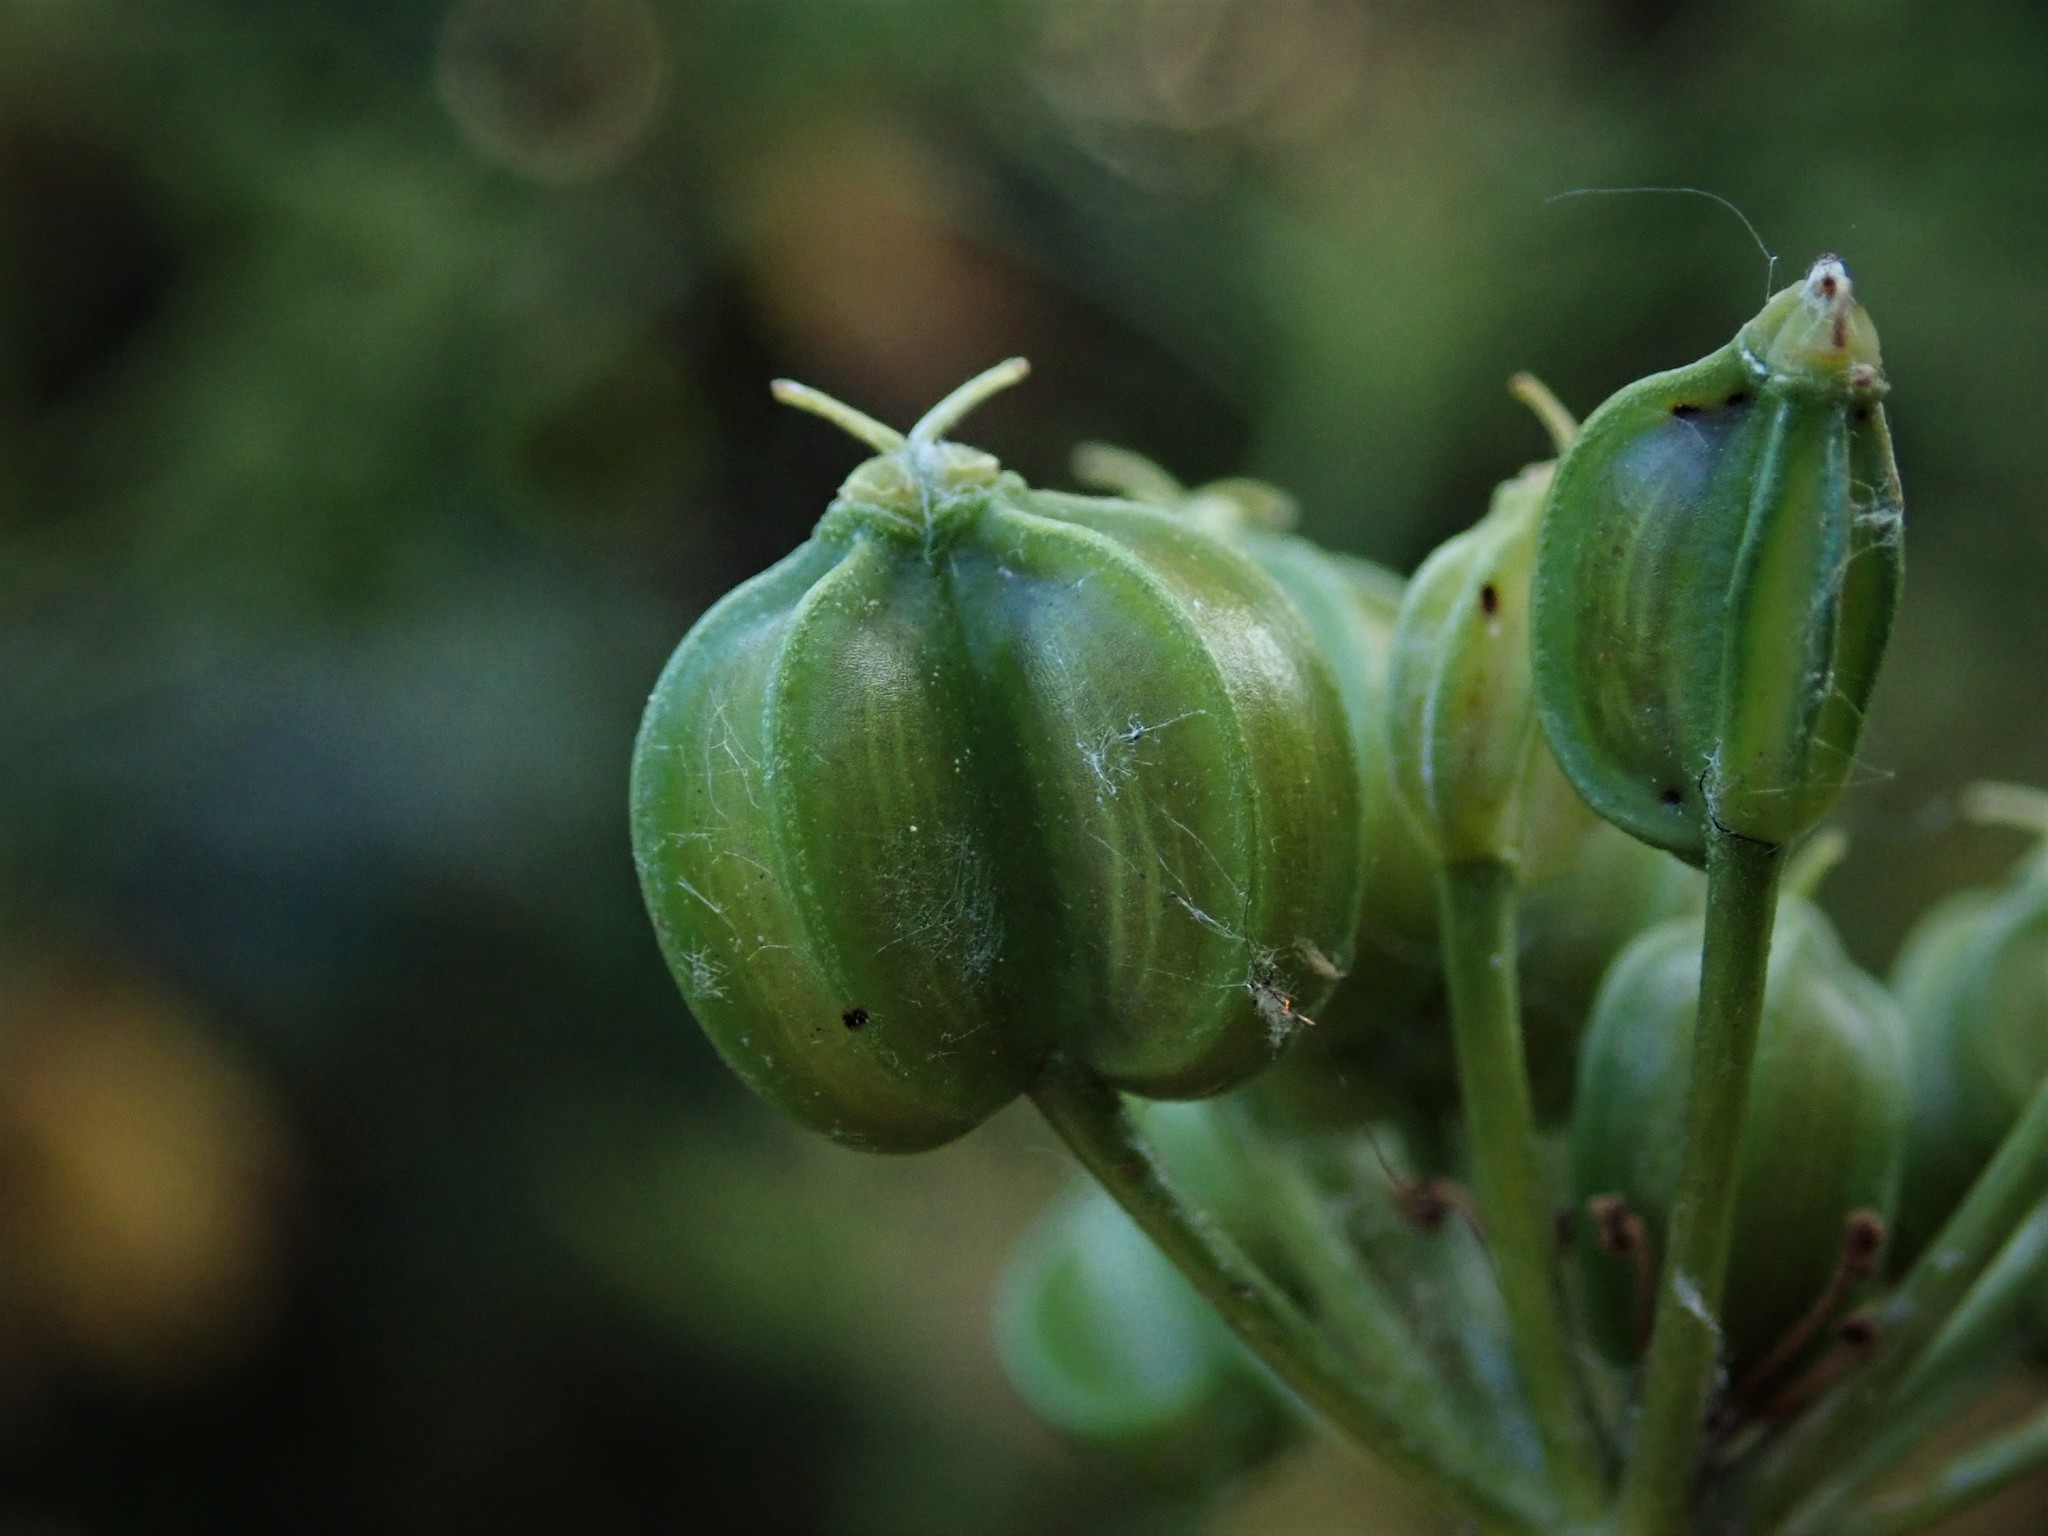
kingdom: Plantae
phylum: Tracheophyta
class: Magnoliopsida
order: Apiales
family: Apiaceae
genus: Smyrnium
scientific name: Smyrnium olusatrum
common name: Alexanders
